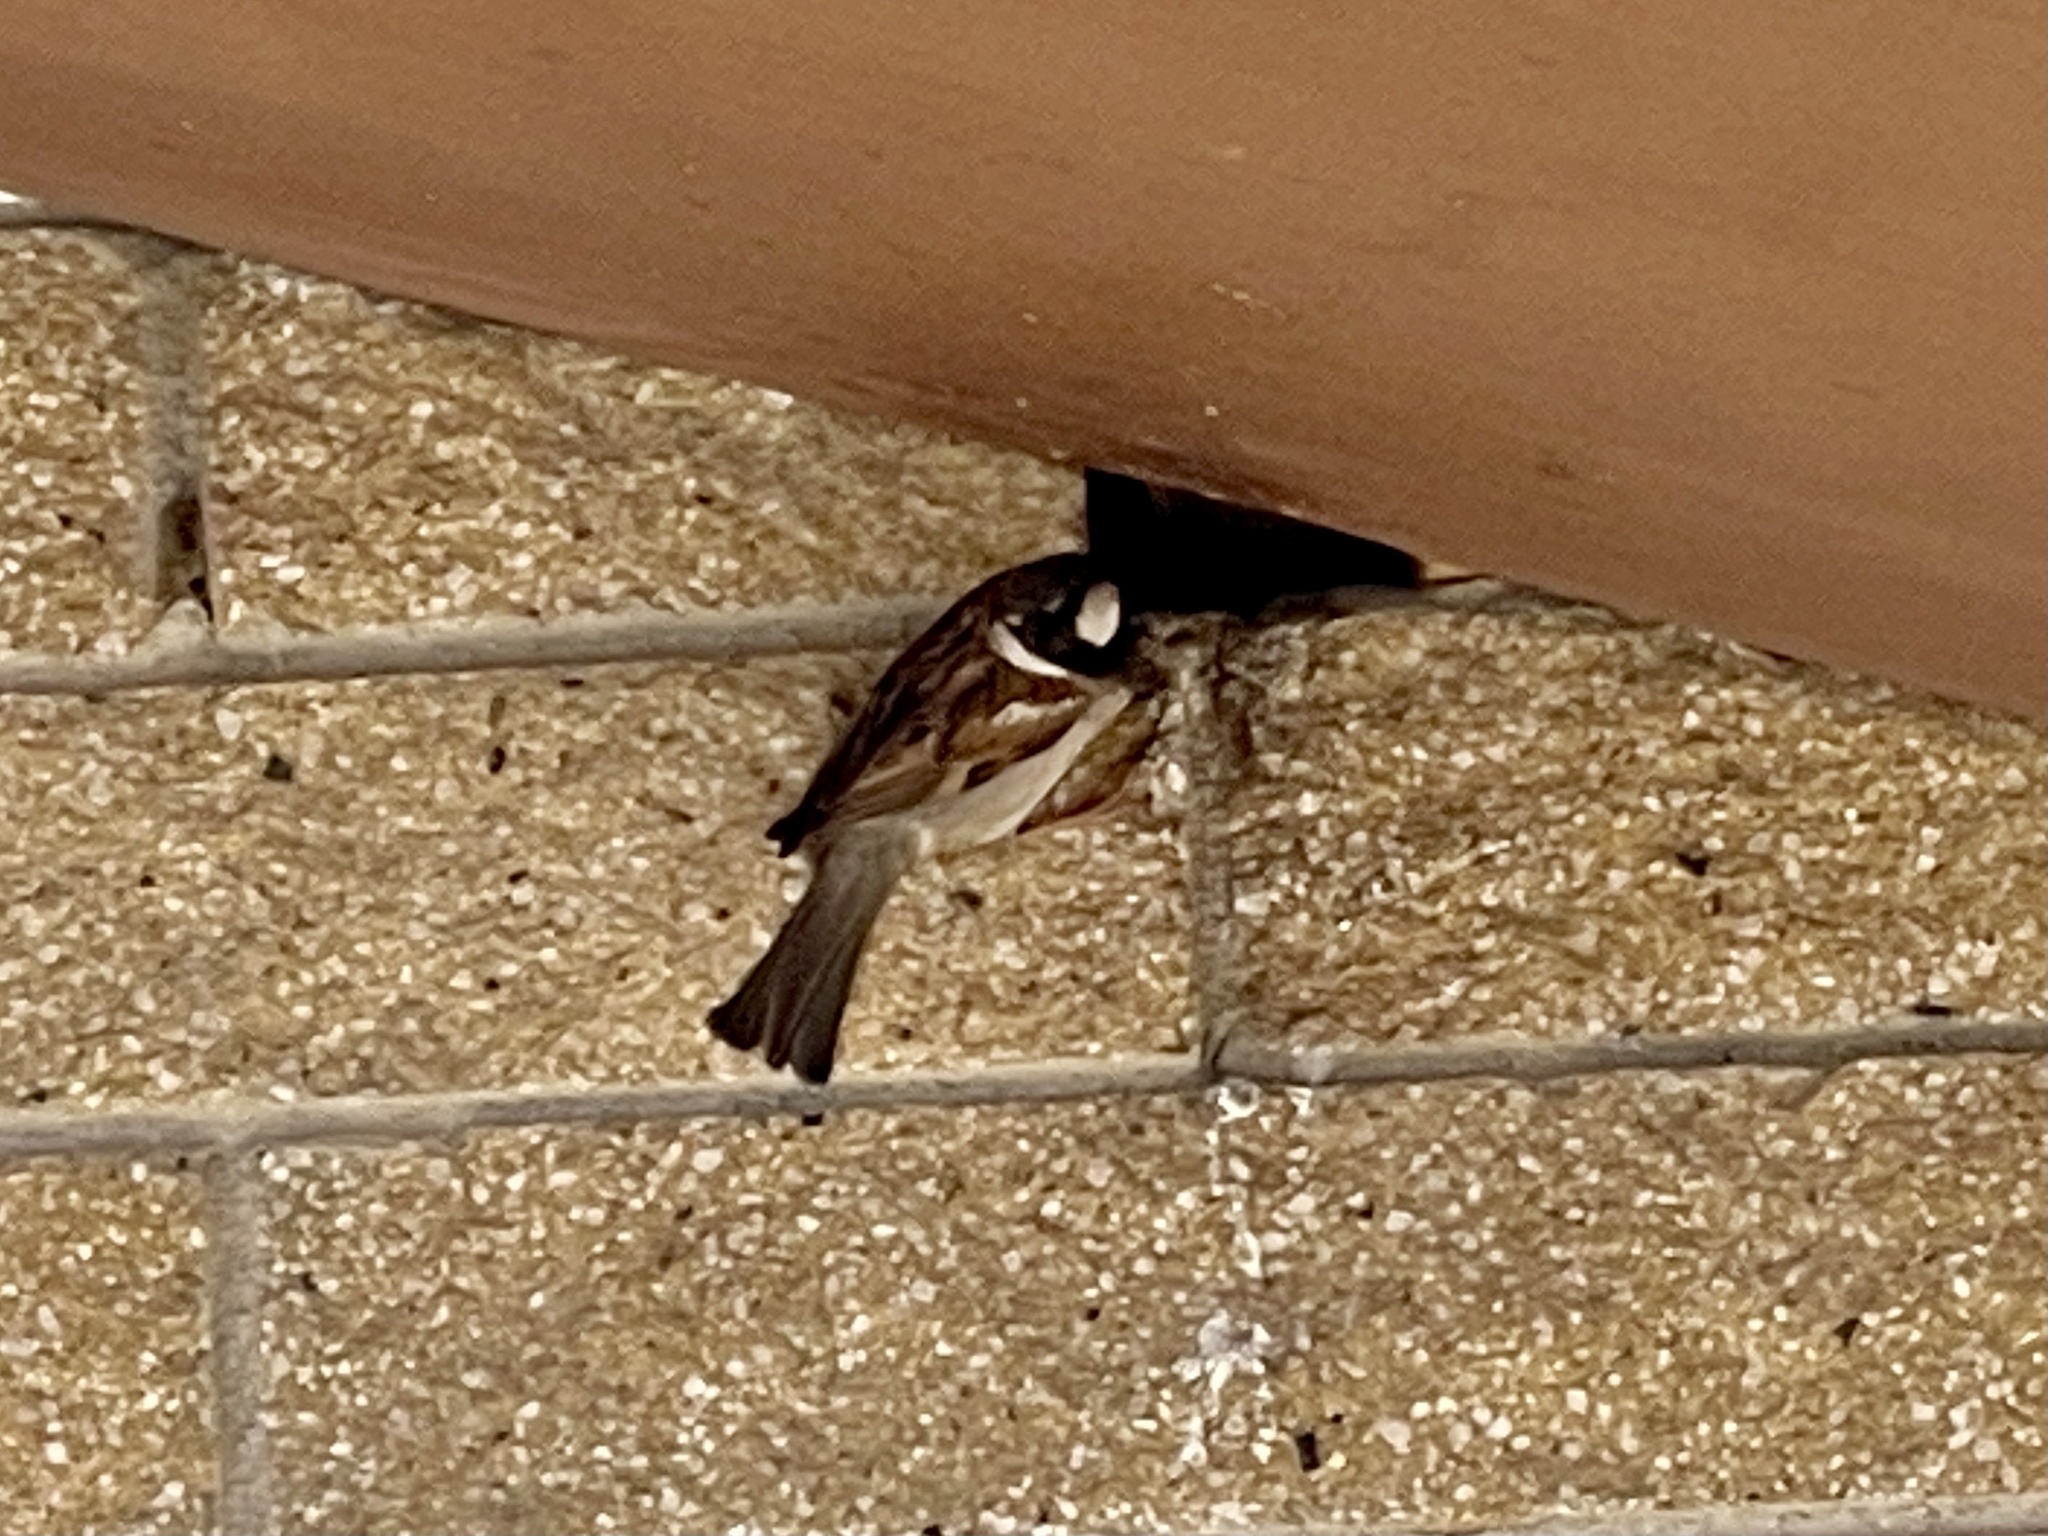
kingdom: Animalia
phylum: Chordata
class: Aves
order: Passeriformes
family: Passeridae
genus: Passer
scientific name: Passer domesticus
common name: House sparrow
